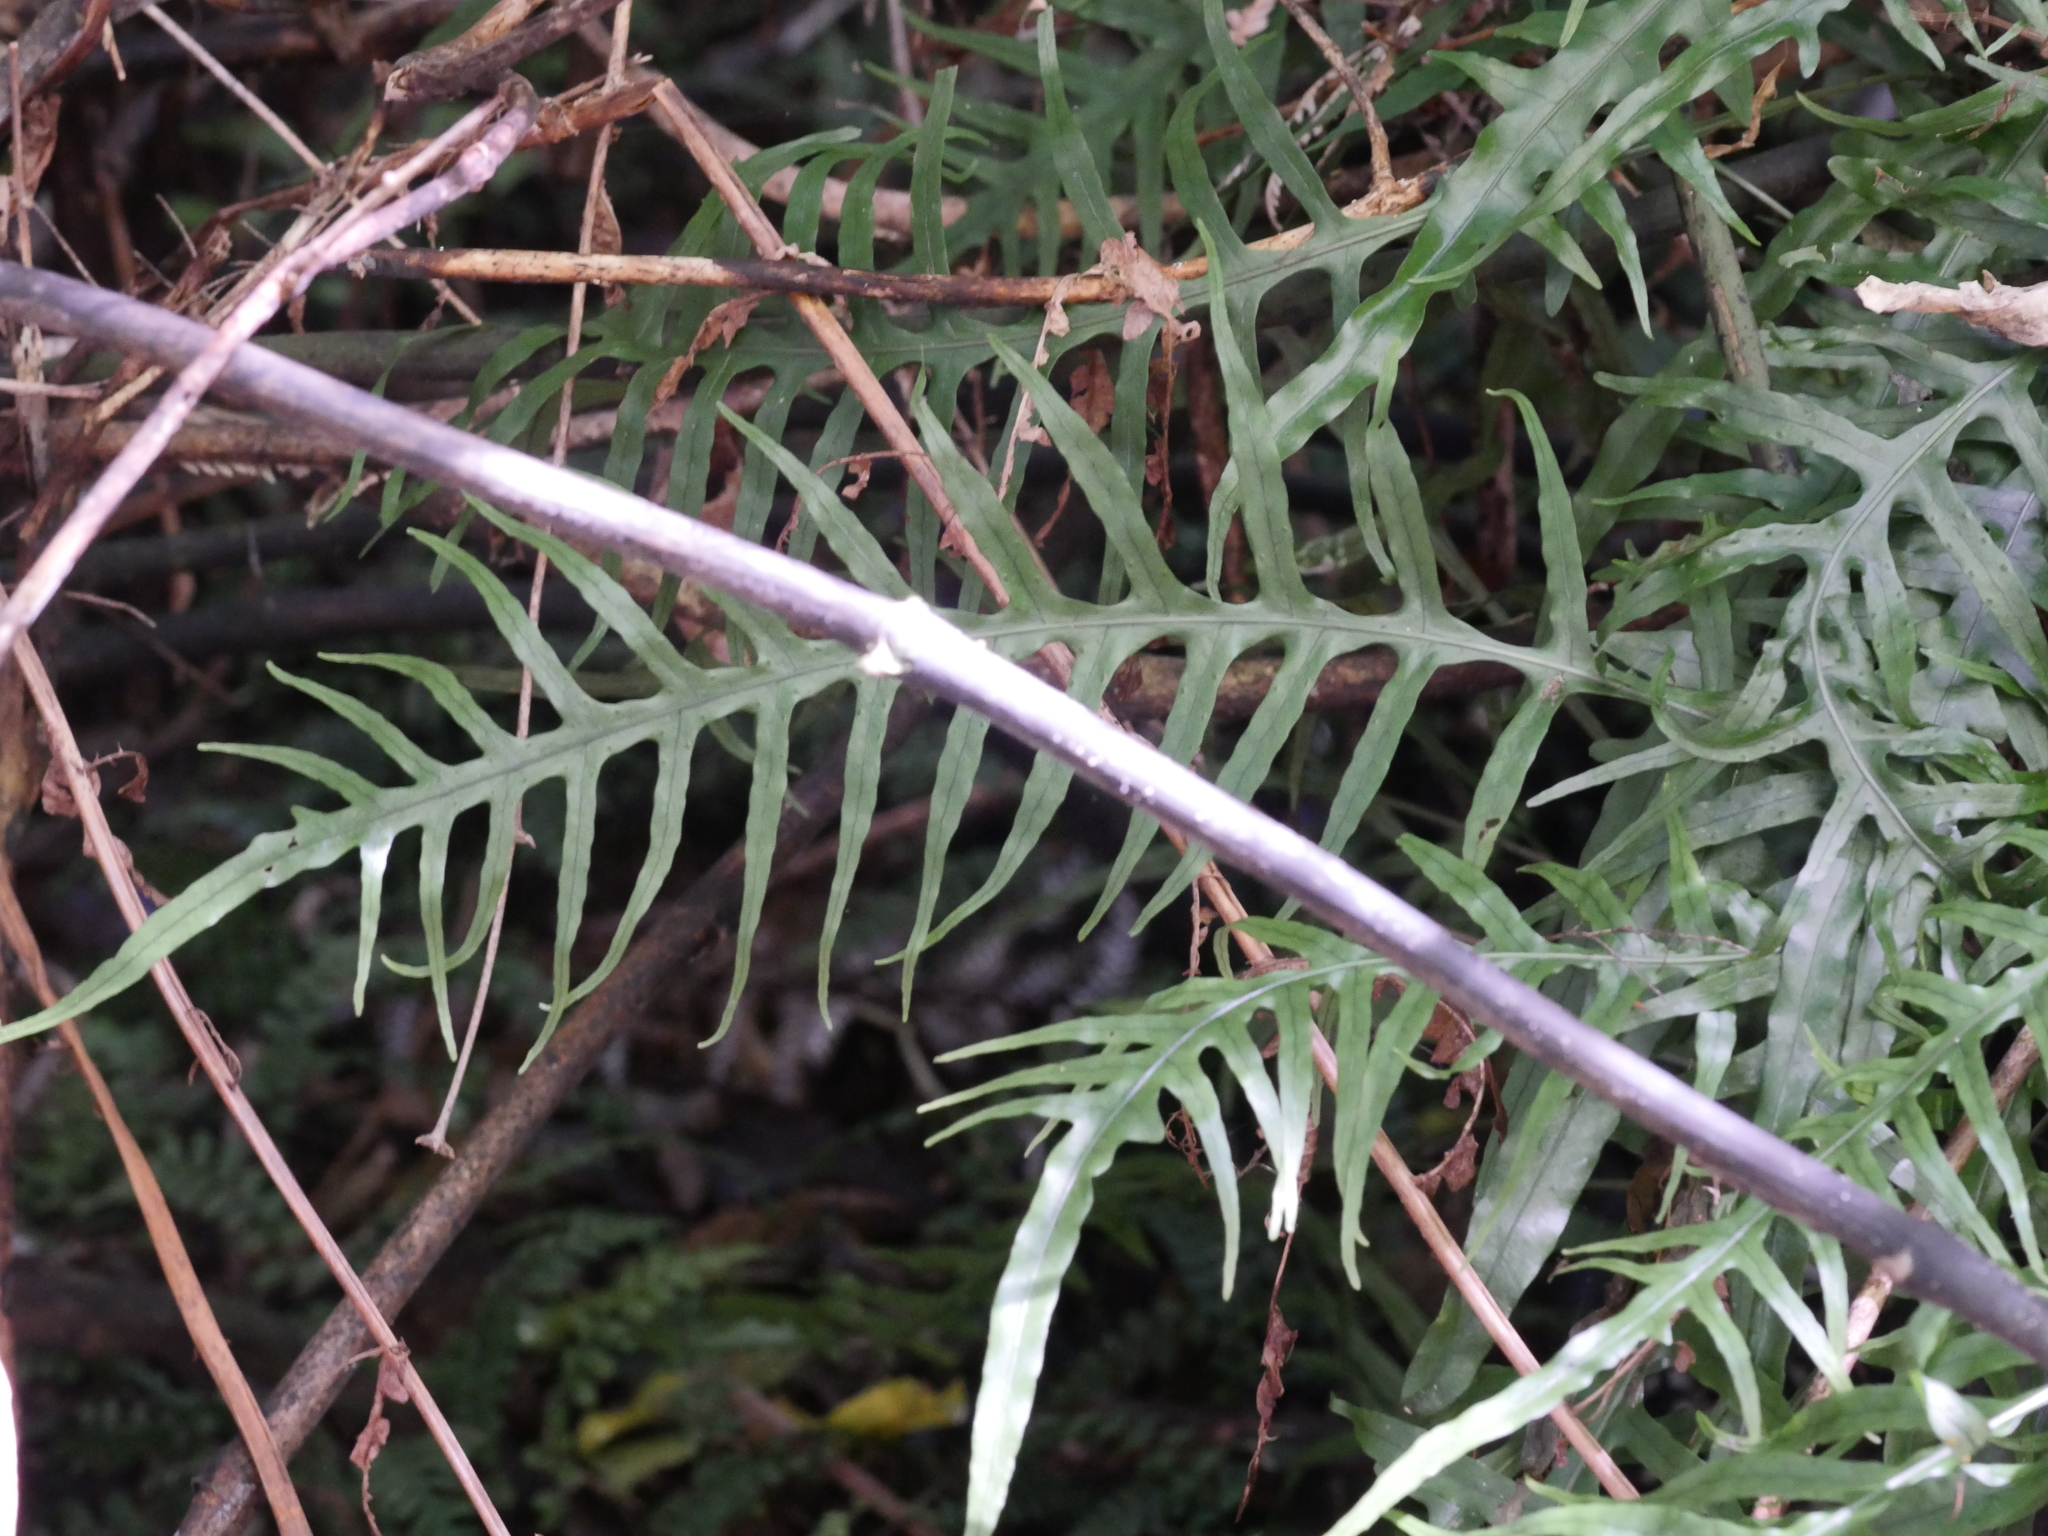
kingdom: Plantae
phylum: Tracheophyta
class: Polypodiopsida
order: Polypodiales
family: Polypodiaceae
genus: Lecanopteris
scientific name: Lecanopteris scandens
